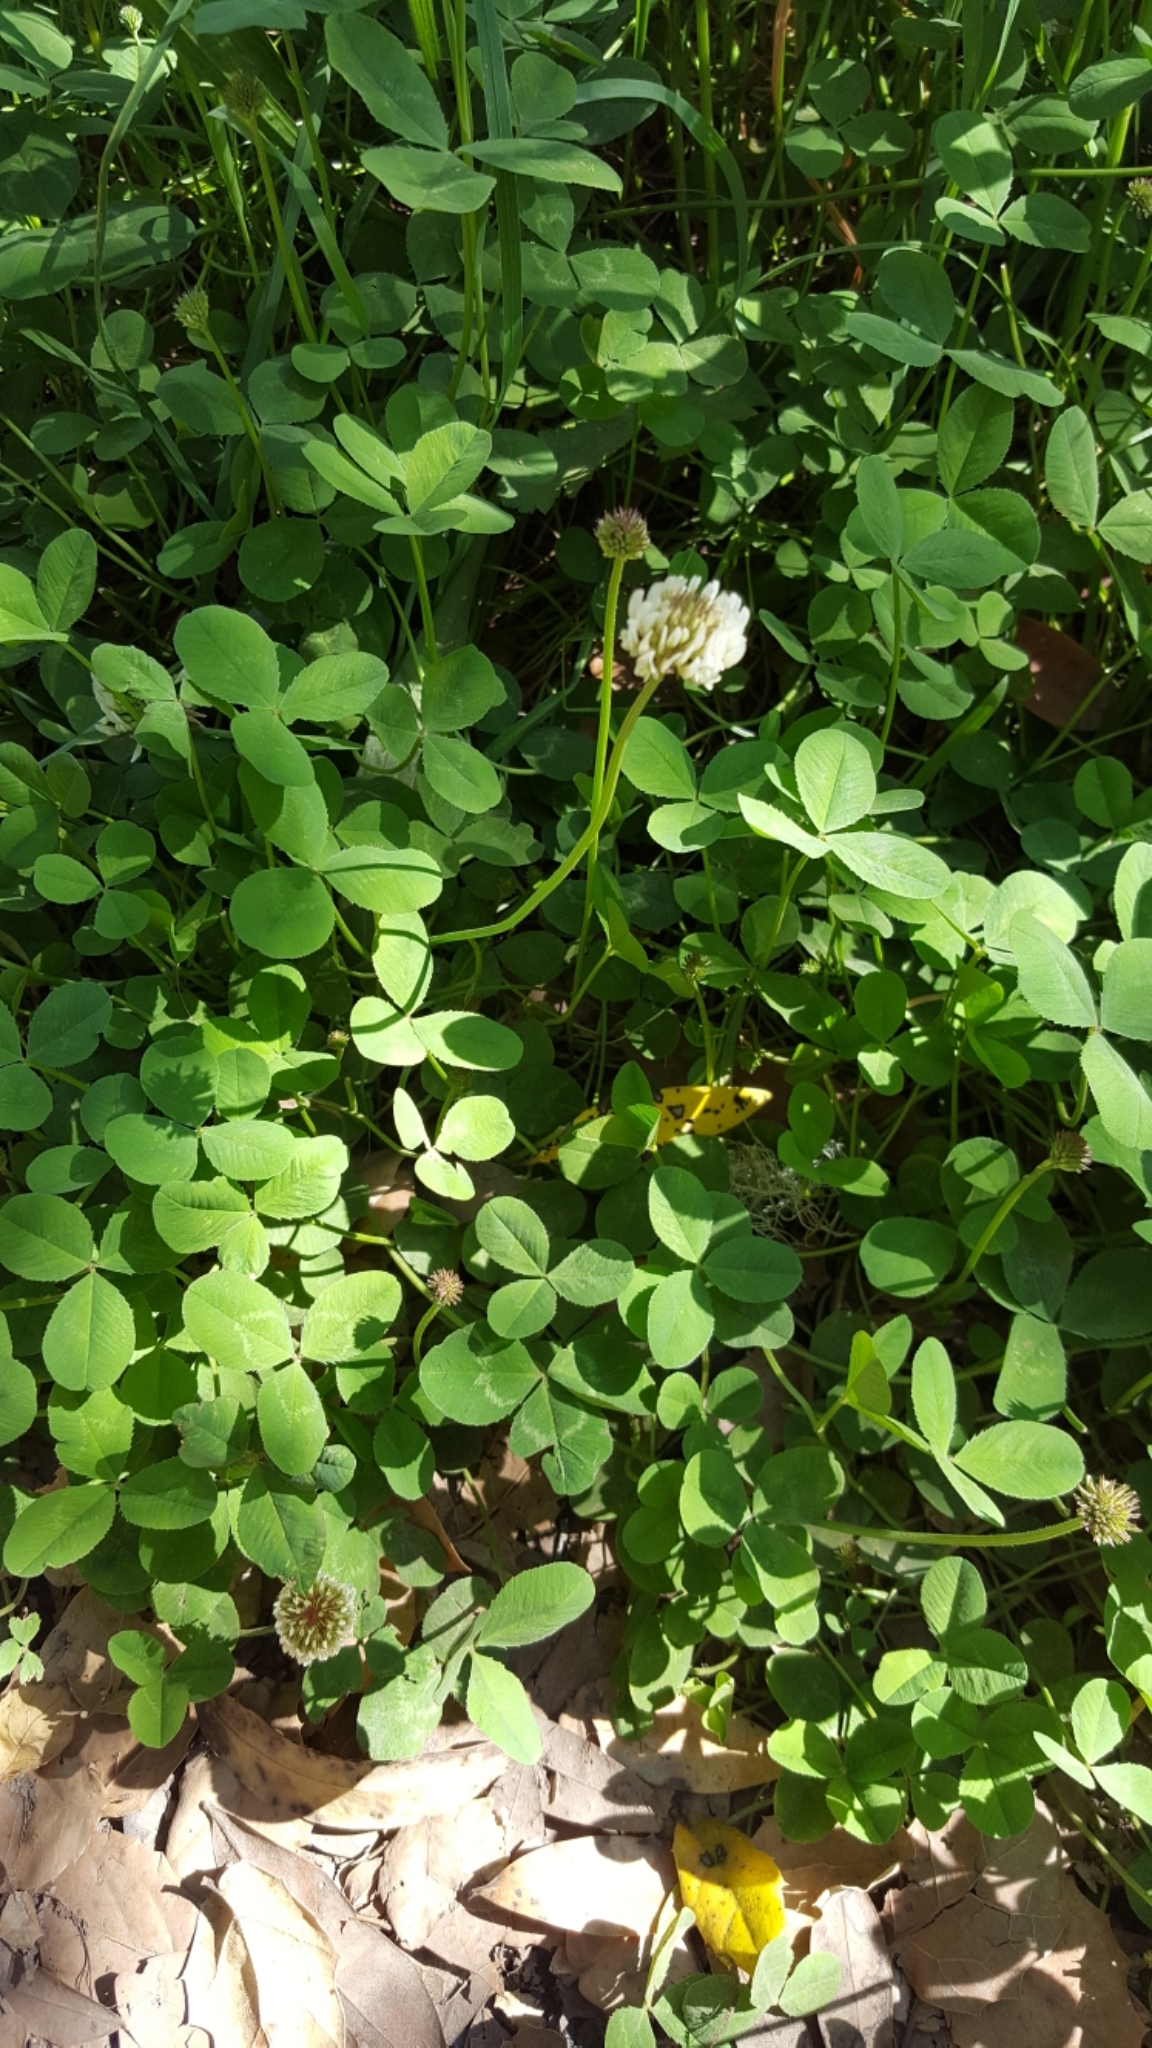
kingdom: Plantae
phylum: Tracheophyta
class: Magnoliopsida
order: Fabales
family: Fabaceae
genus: Trifolium
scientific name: Trifolium repens
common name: White clover
